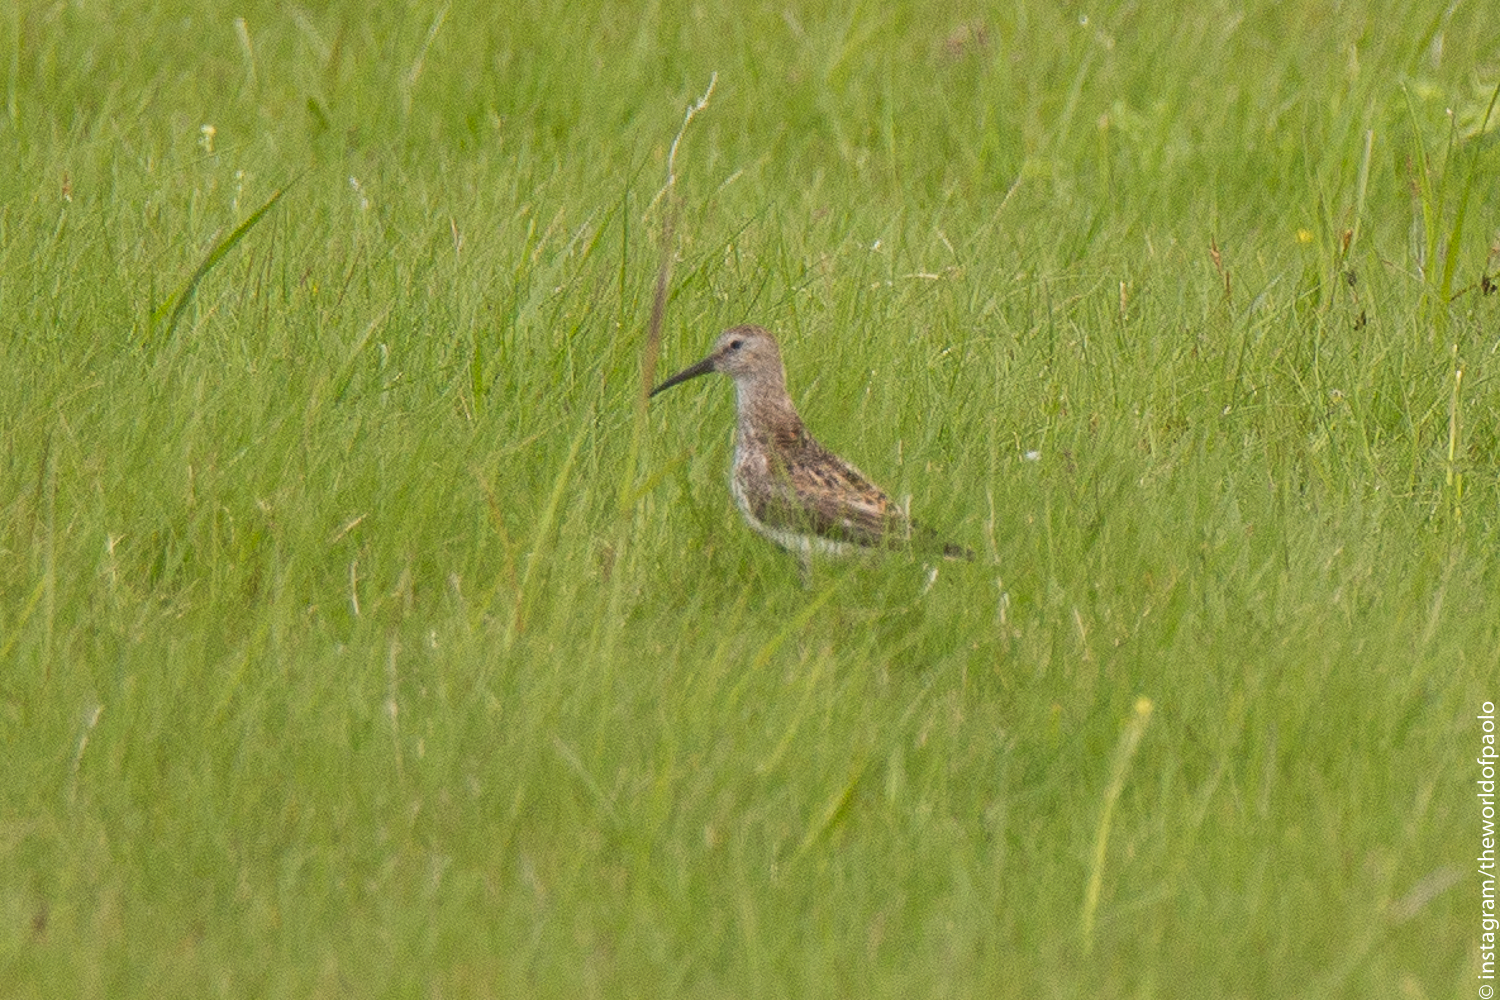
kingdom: Animalia
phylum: Chordata
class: Aves
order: Charadriiformes
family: Scolopacidae
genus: Calidris
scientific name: Calidris alpina
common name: Dunlin
